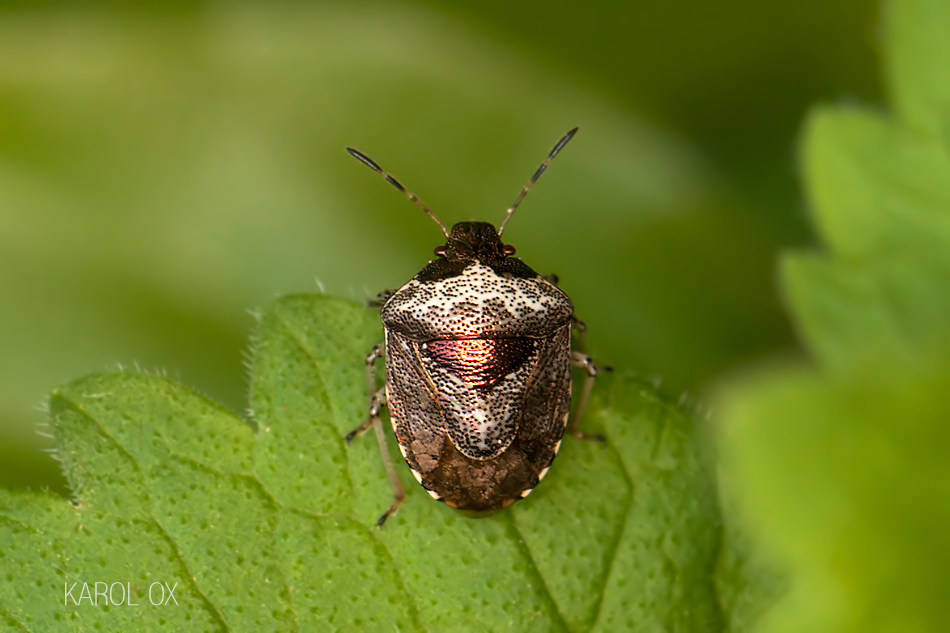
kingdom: Animalia
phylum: Arthropoda
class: Insecta
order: Hemiptera
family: Pentatomidae
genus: Eysarcoris
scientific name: Eysarcoris venustissimus
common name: Woundwort shieldbug
